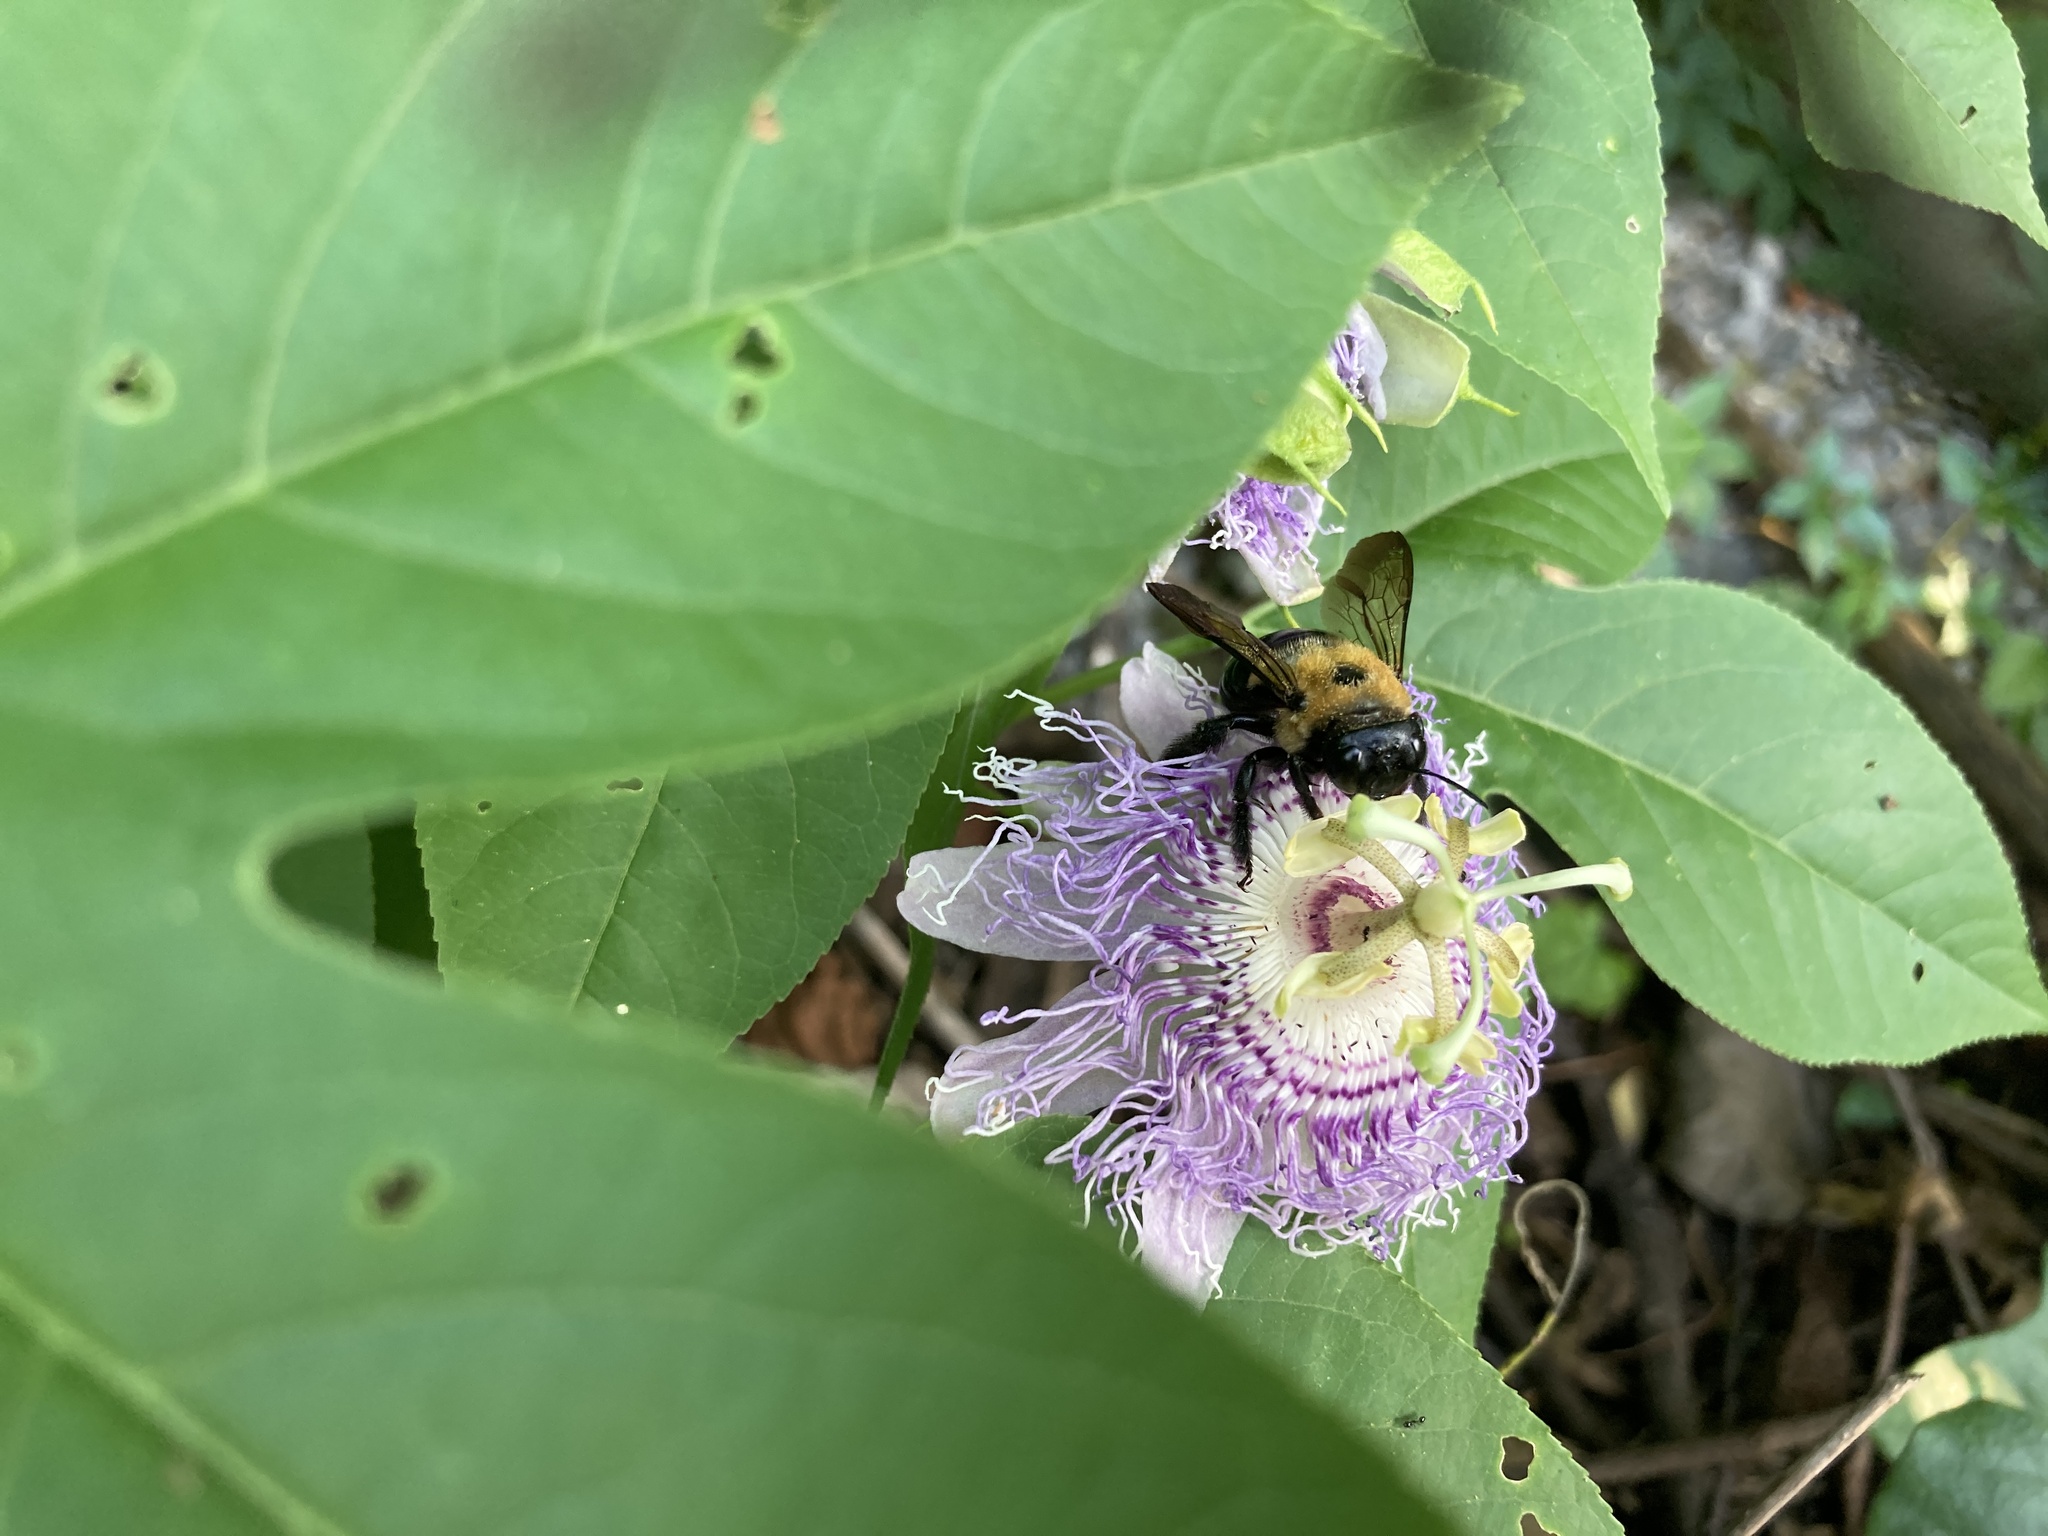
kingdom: Animalia
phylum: Arthropoda
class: Insecta
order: Hymenoptera
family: Apidae
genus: Xylocopa
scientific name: Xylocopa virginica
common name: Carpenter bee
